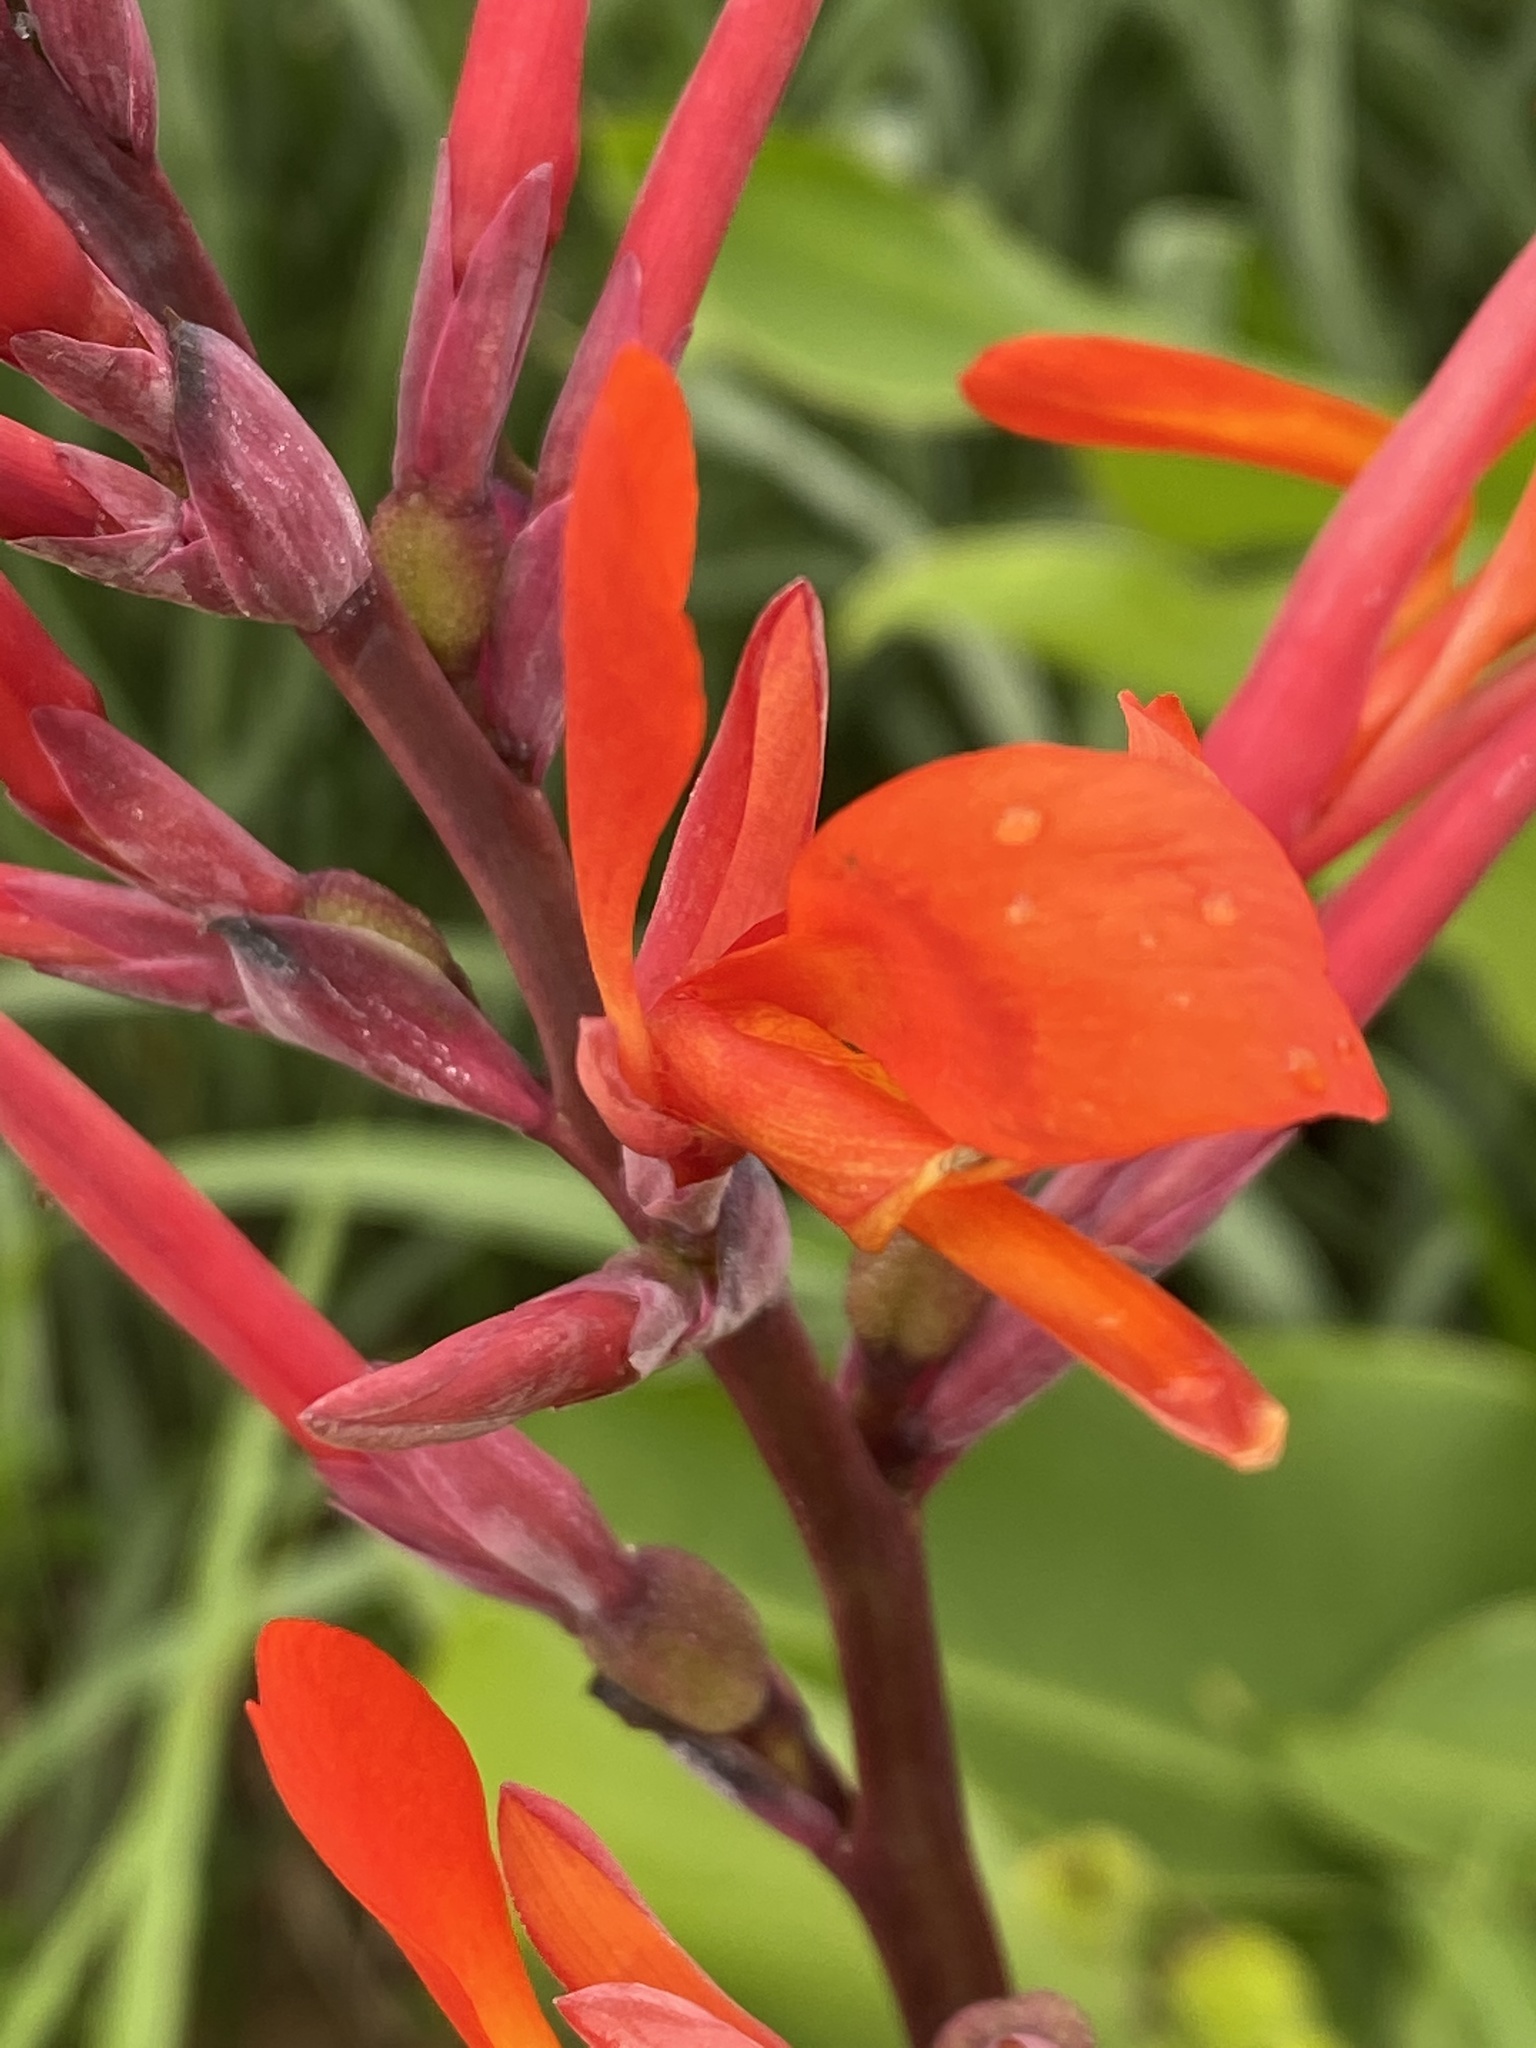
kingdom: Plantae
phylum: Tracheophyta
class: Liliopsida
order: Zingiberales
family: Cannaceae
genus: Canna
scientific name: Canna indica
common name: Indian shot
